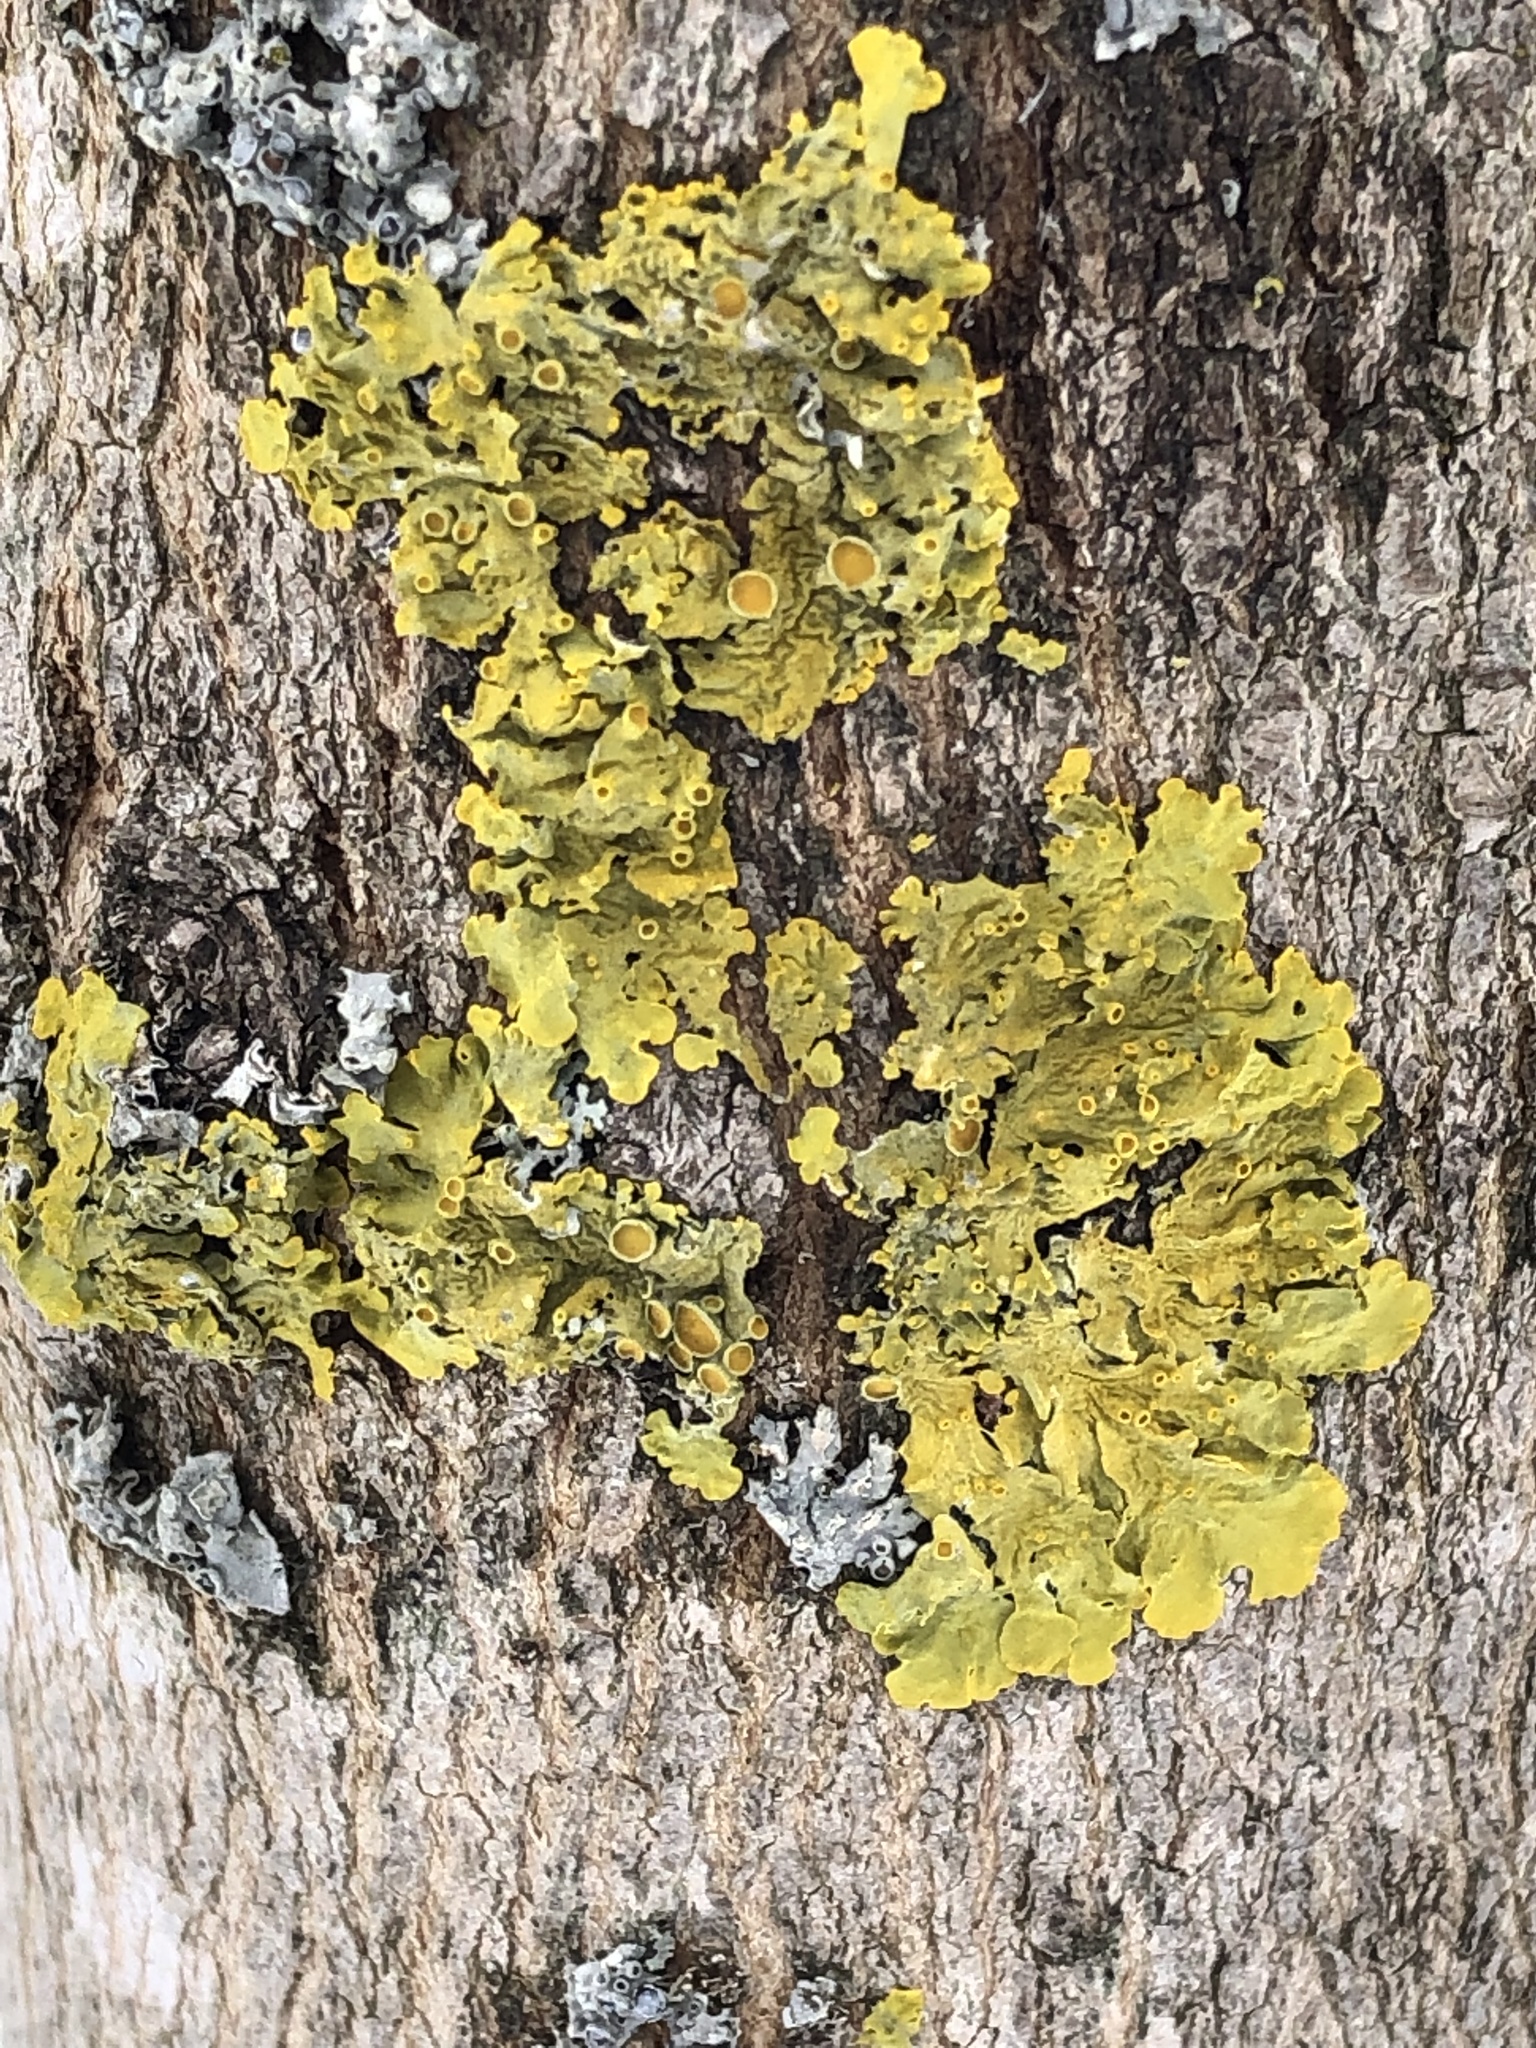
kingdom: Fungi
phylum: Ascomycota
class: Lecanoromycetes
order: Teloschistales
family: Teloschistaceae
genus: Xanthoria
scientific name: Xanthoria parietina
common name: Common orange lichen
